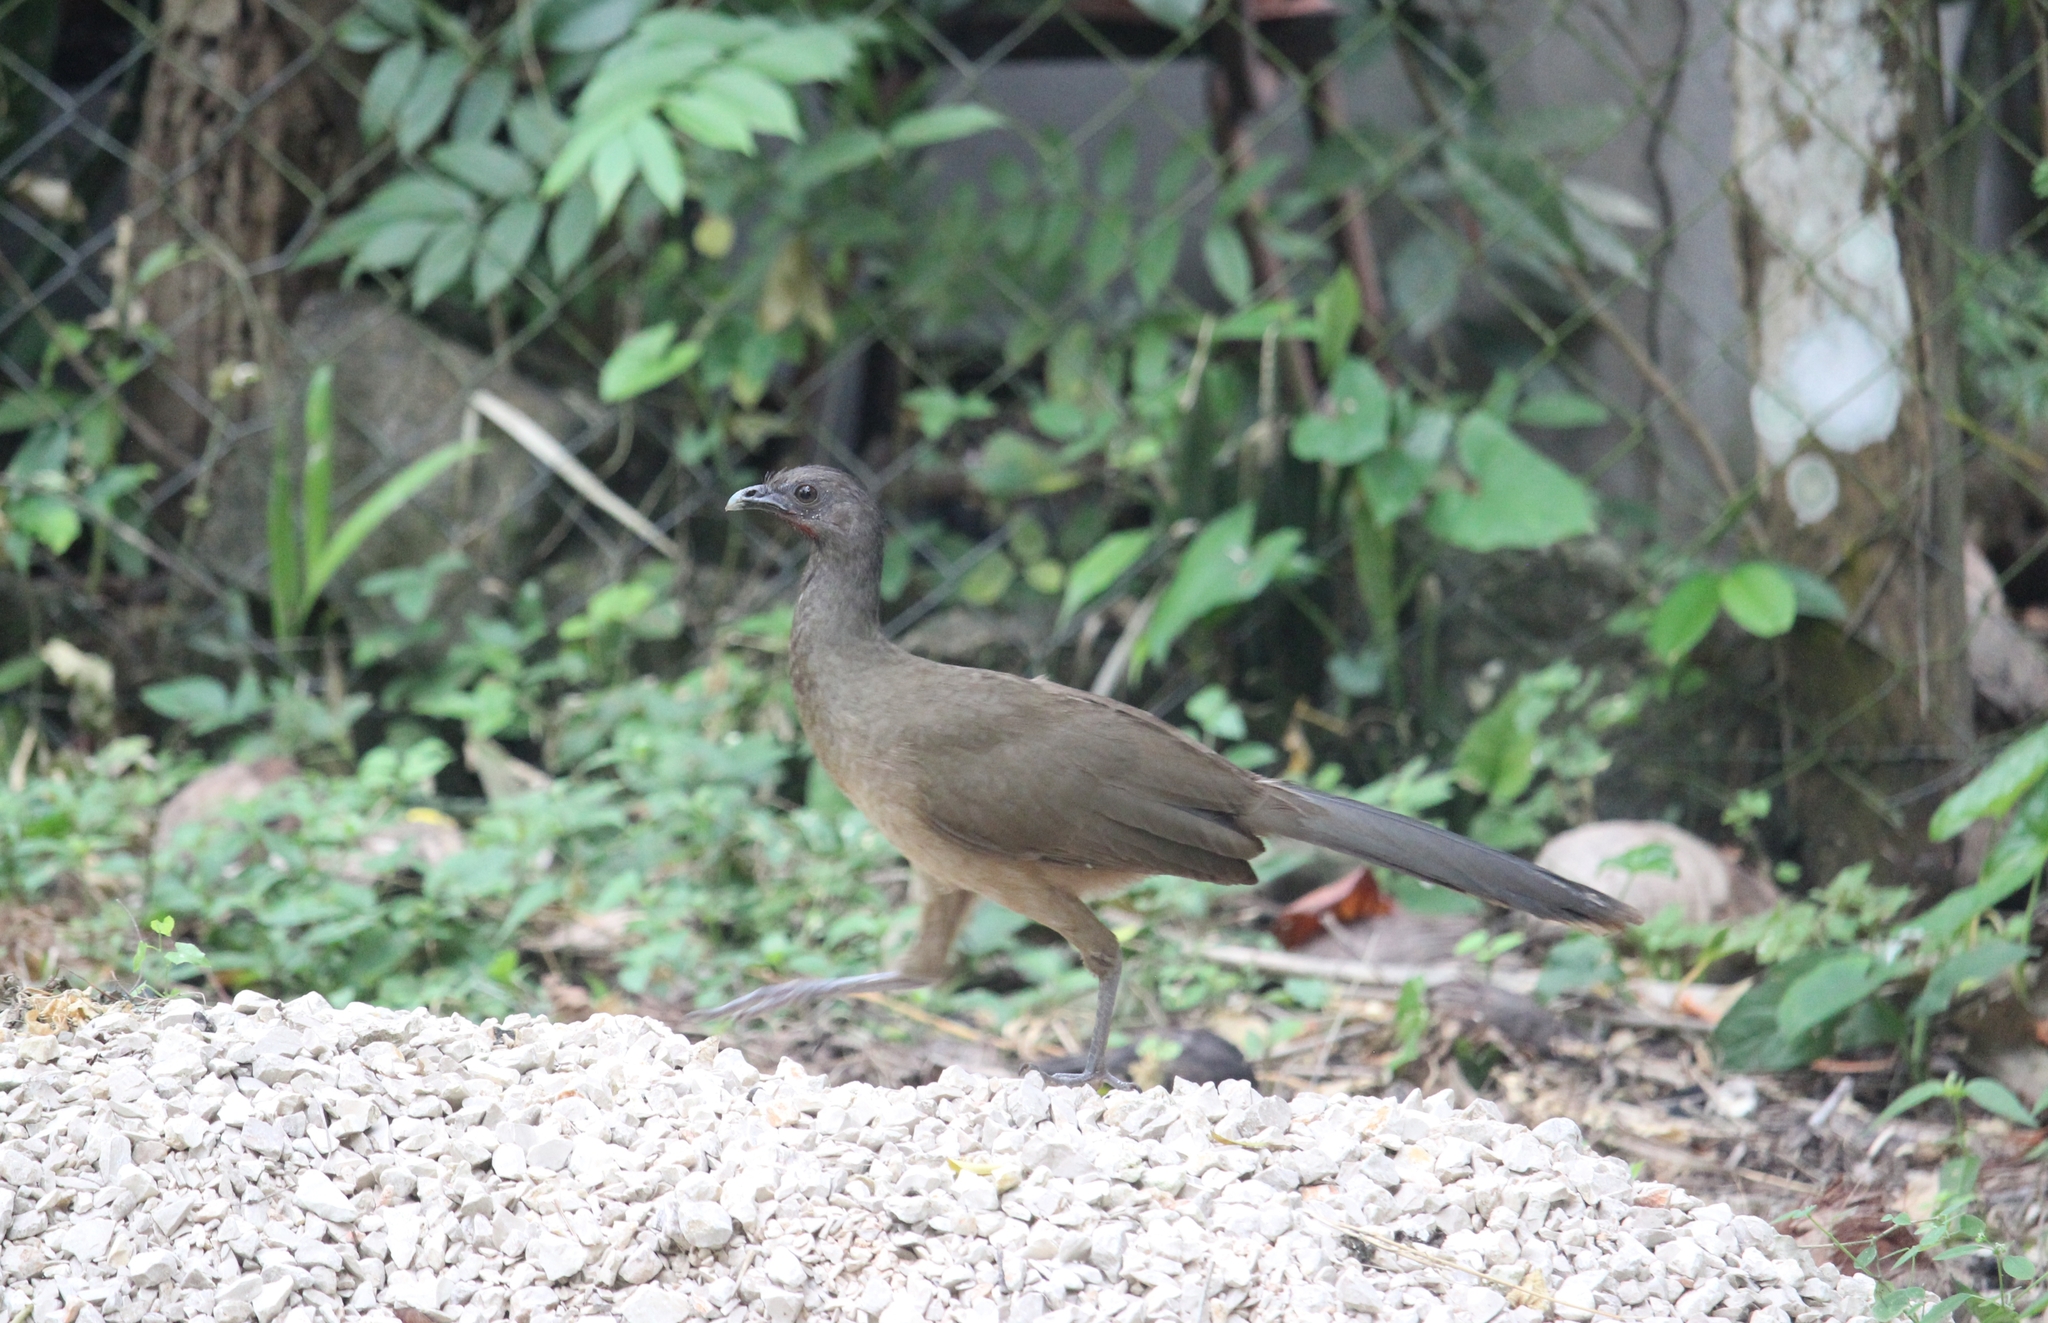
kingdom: Animalia
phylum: Chordata
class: Aves
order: Galliformes
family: Cracidae
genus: Ortalis
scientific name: Ortalis vetula
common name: Plain chachalaca
